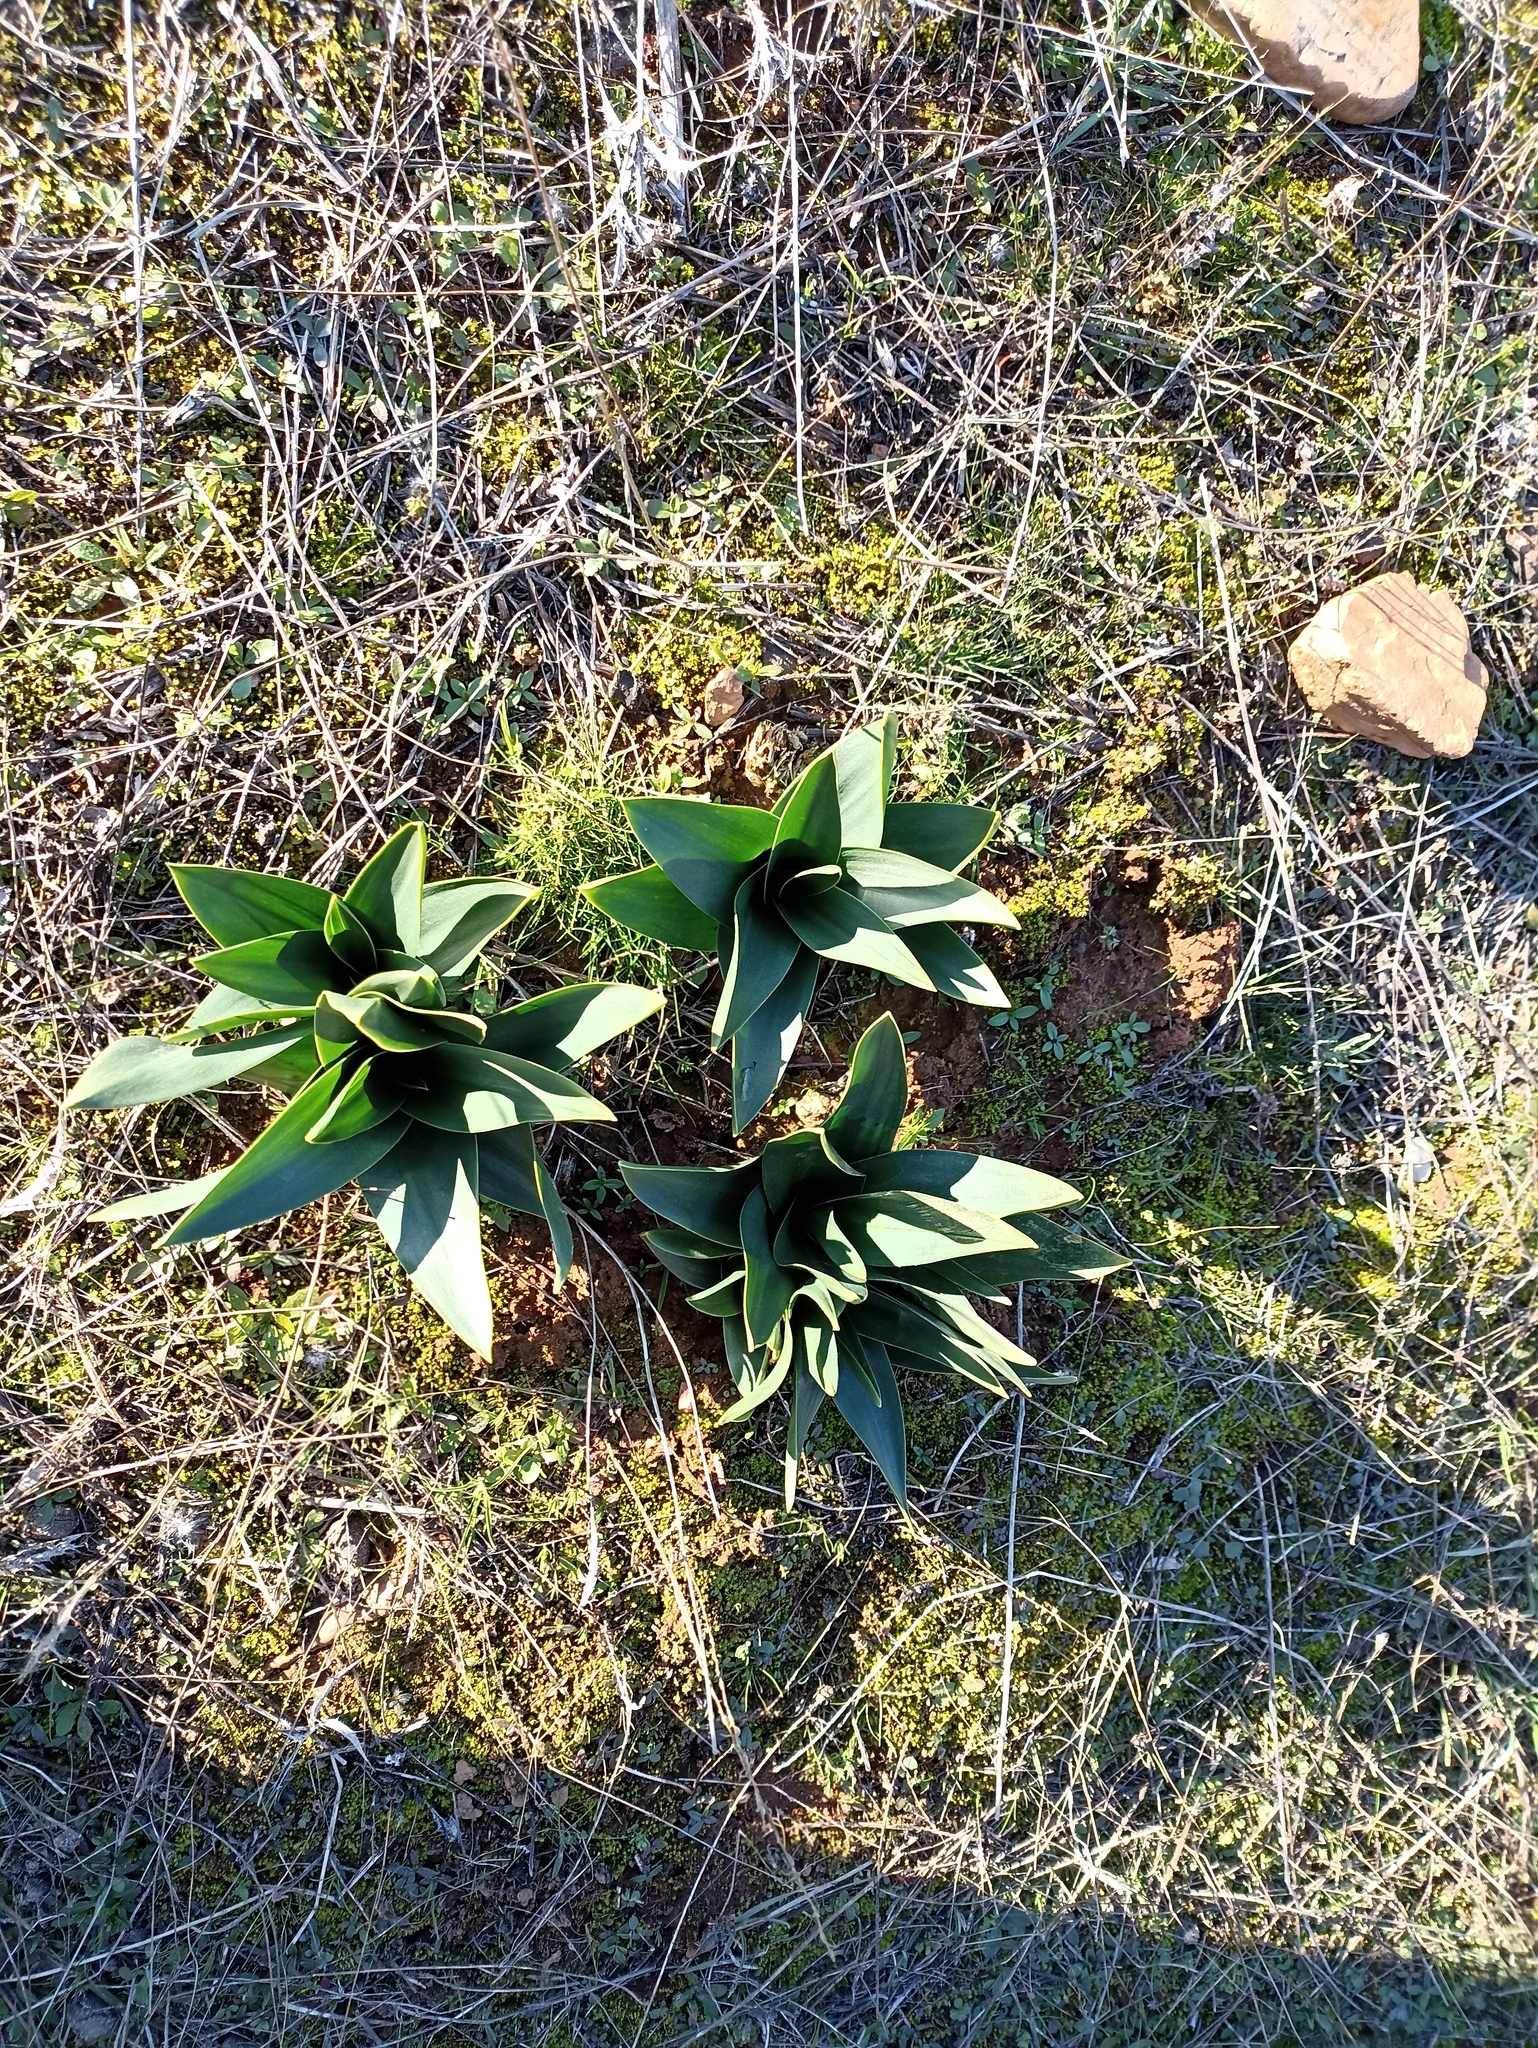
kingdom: Plantae
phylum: Tracheophyta
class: Liliopsida
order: Asparagales
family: Asparagaceae
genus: Drimia
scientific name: Drimia maritima
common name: Maritime squill
